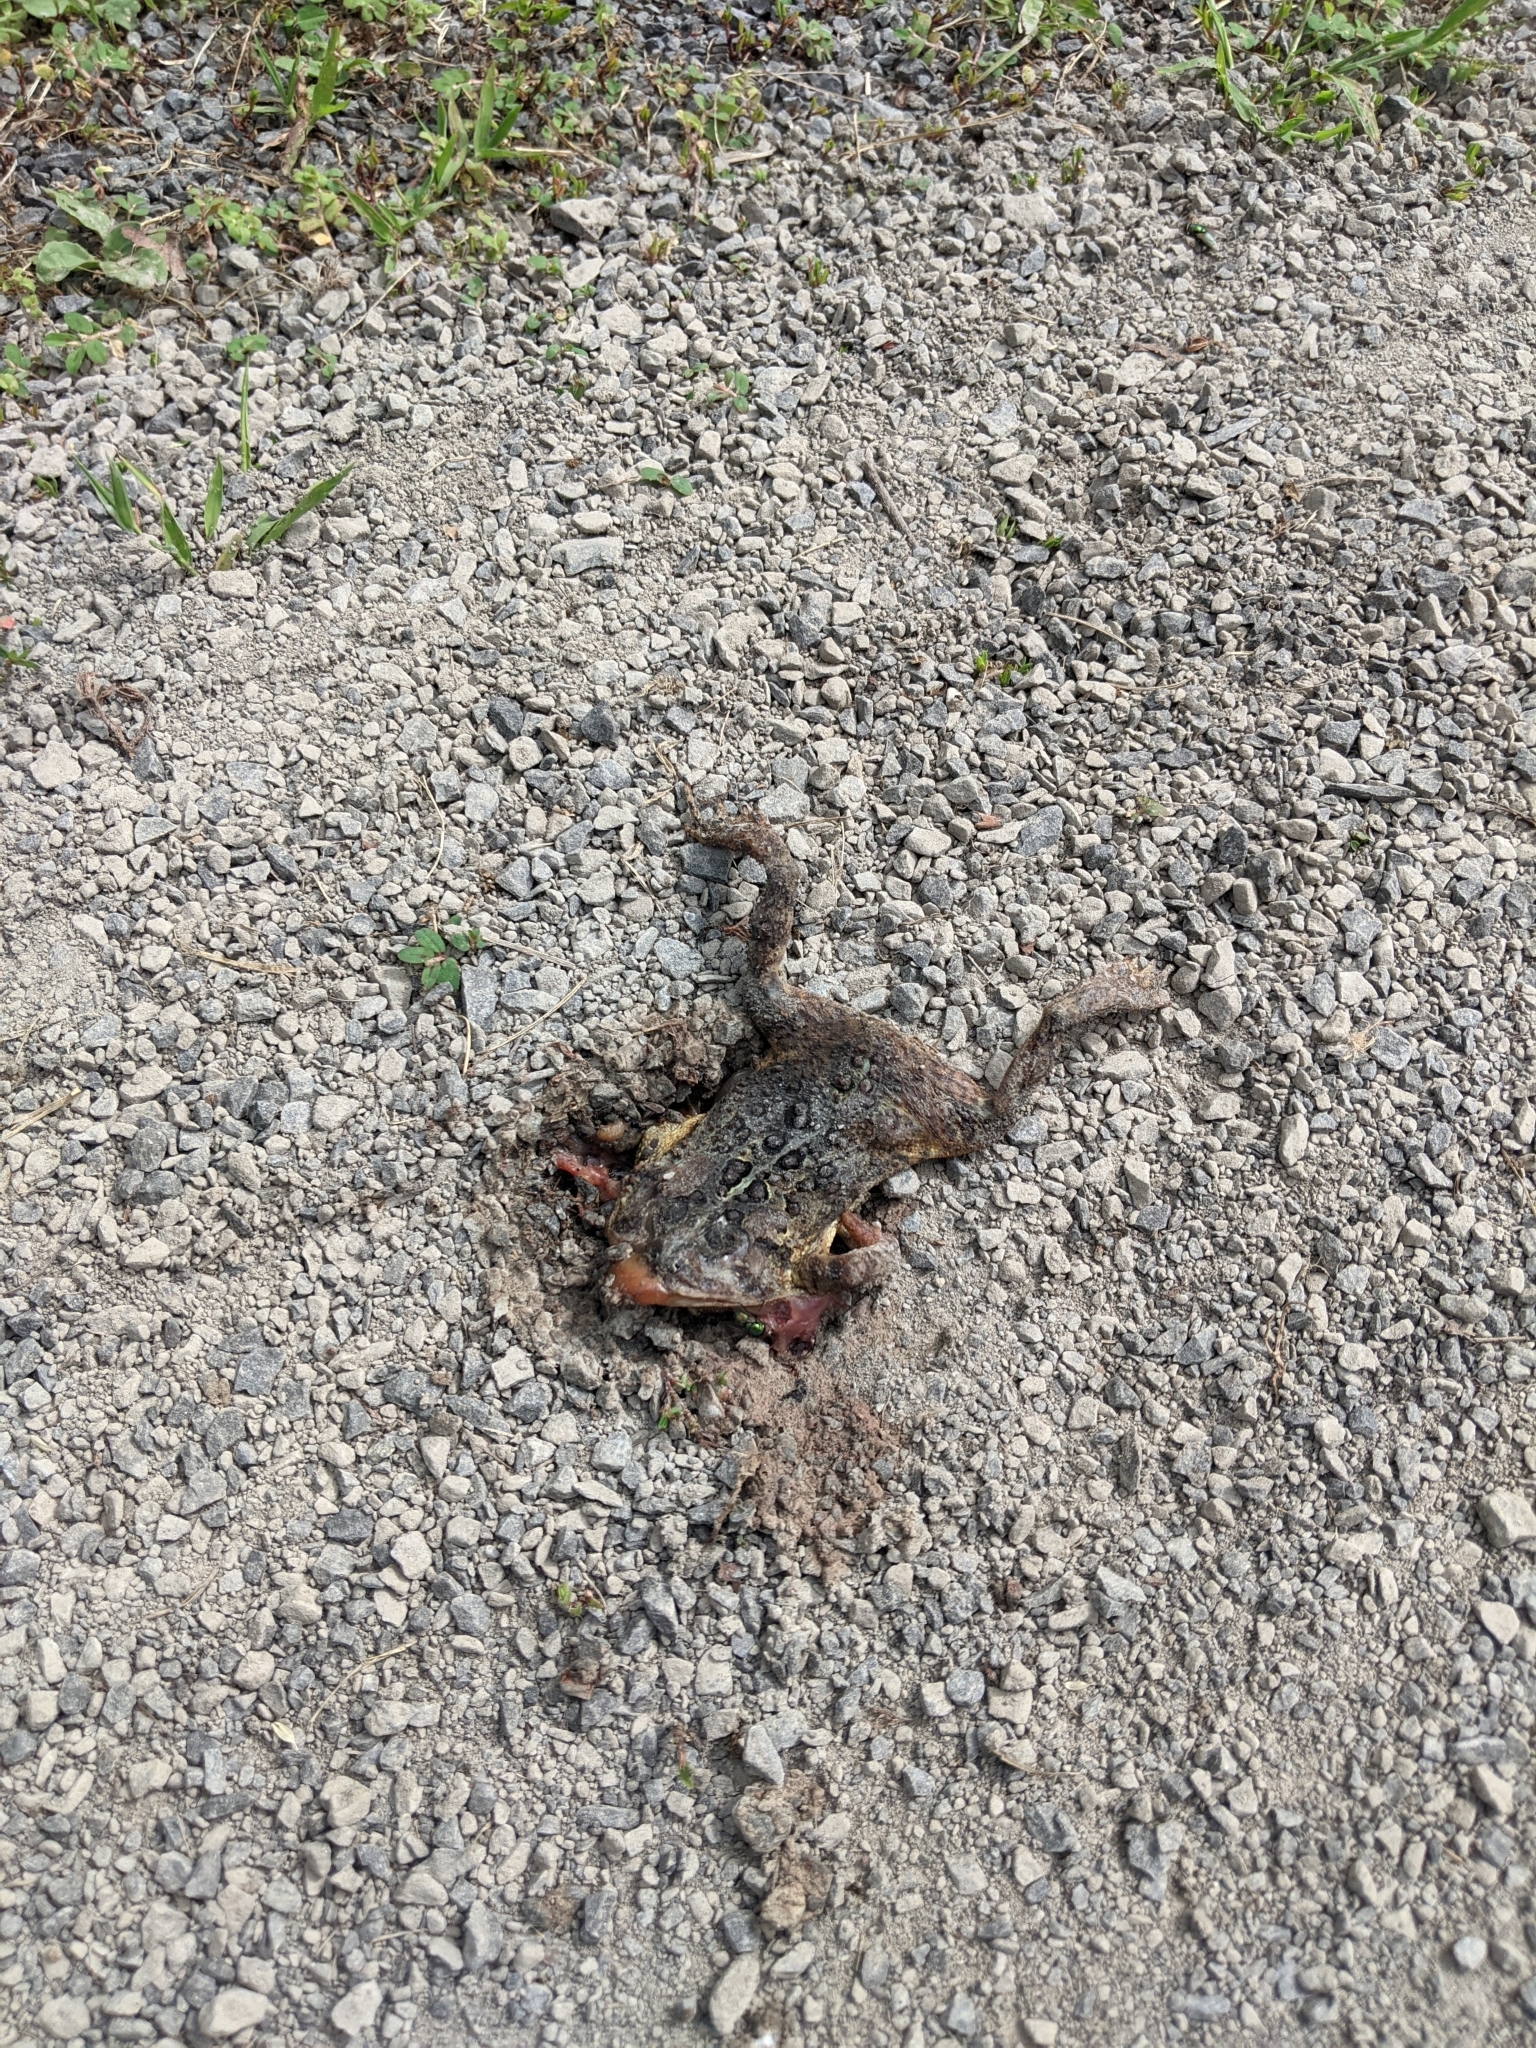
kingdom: Animalia
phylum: Chordata
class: Amphibia
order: Anura
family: Bufonidae
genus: Anaxyrus
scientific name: Anaxyrus americanus
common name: American toad
